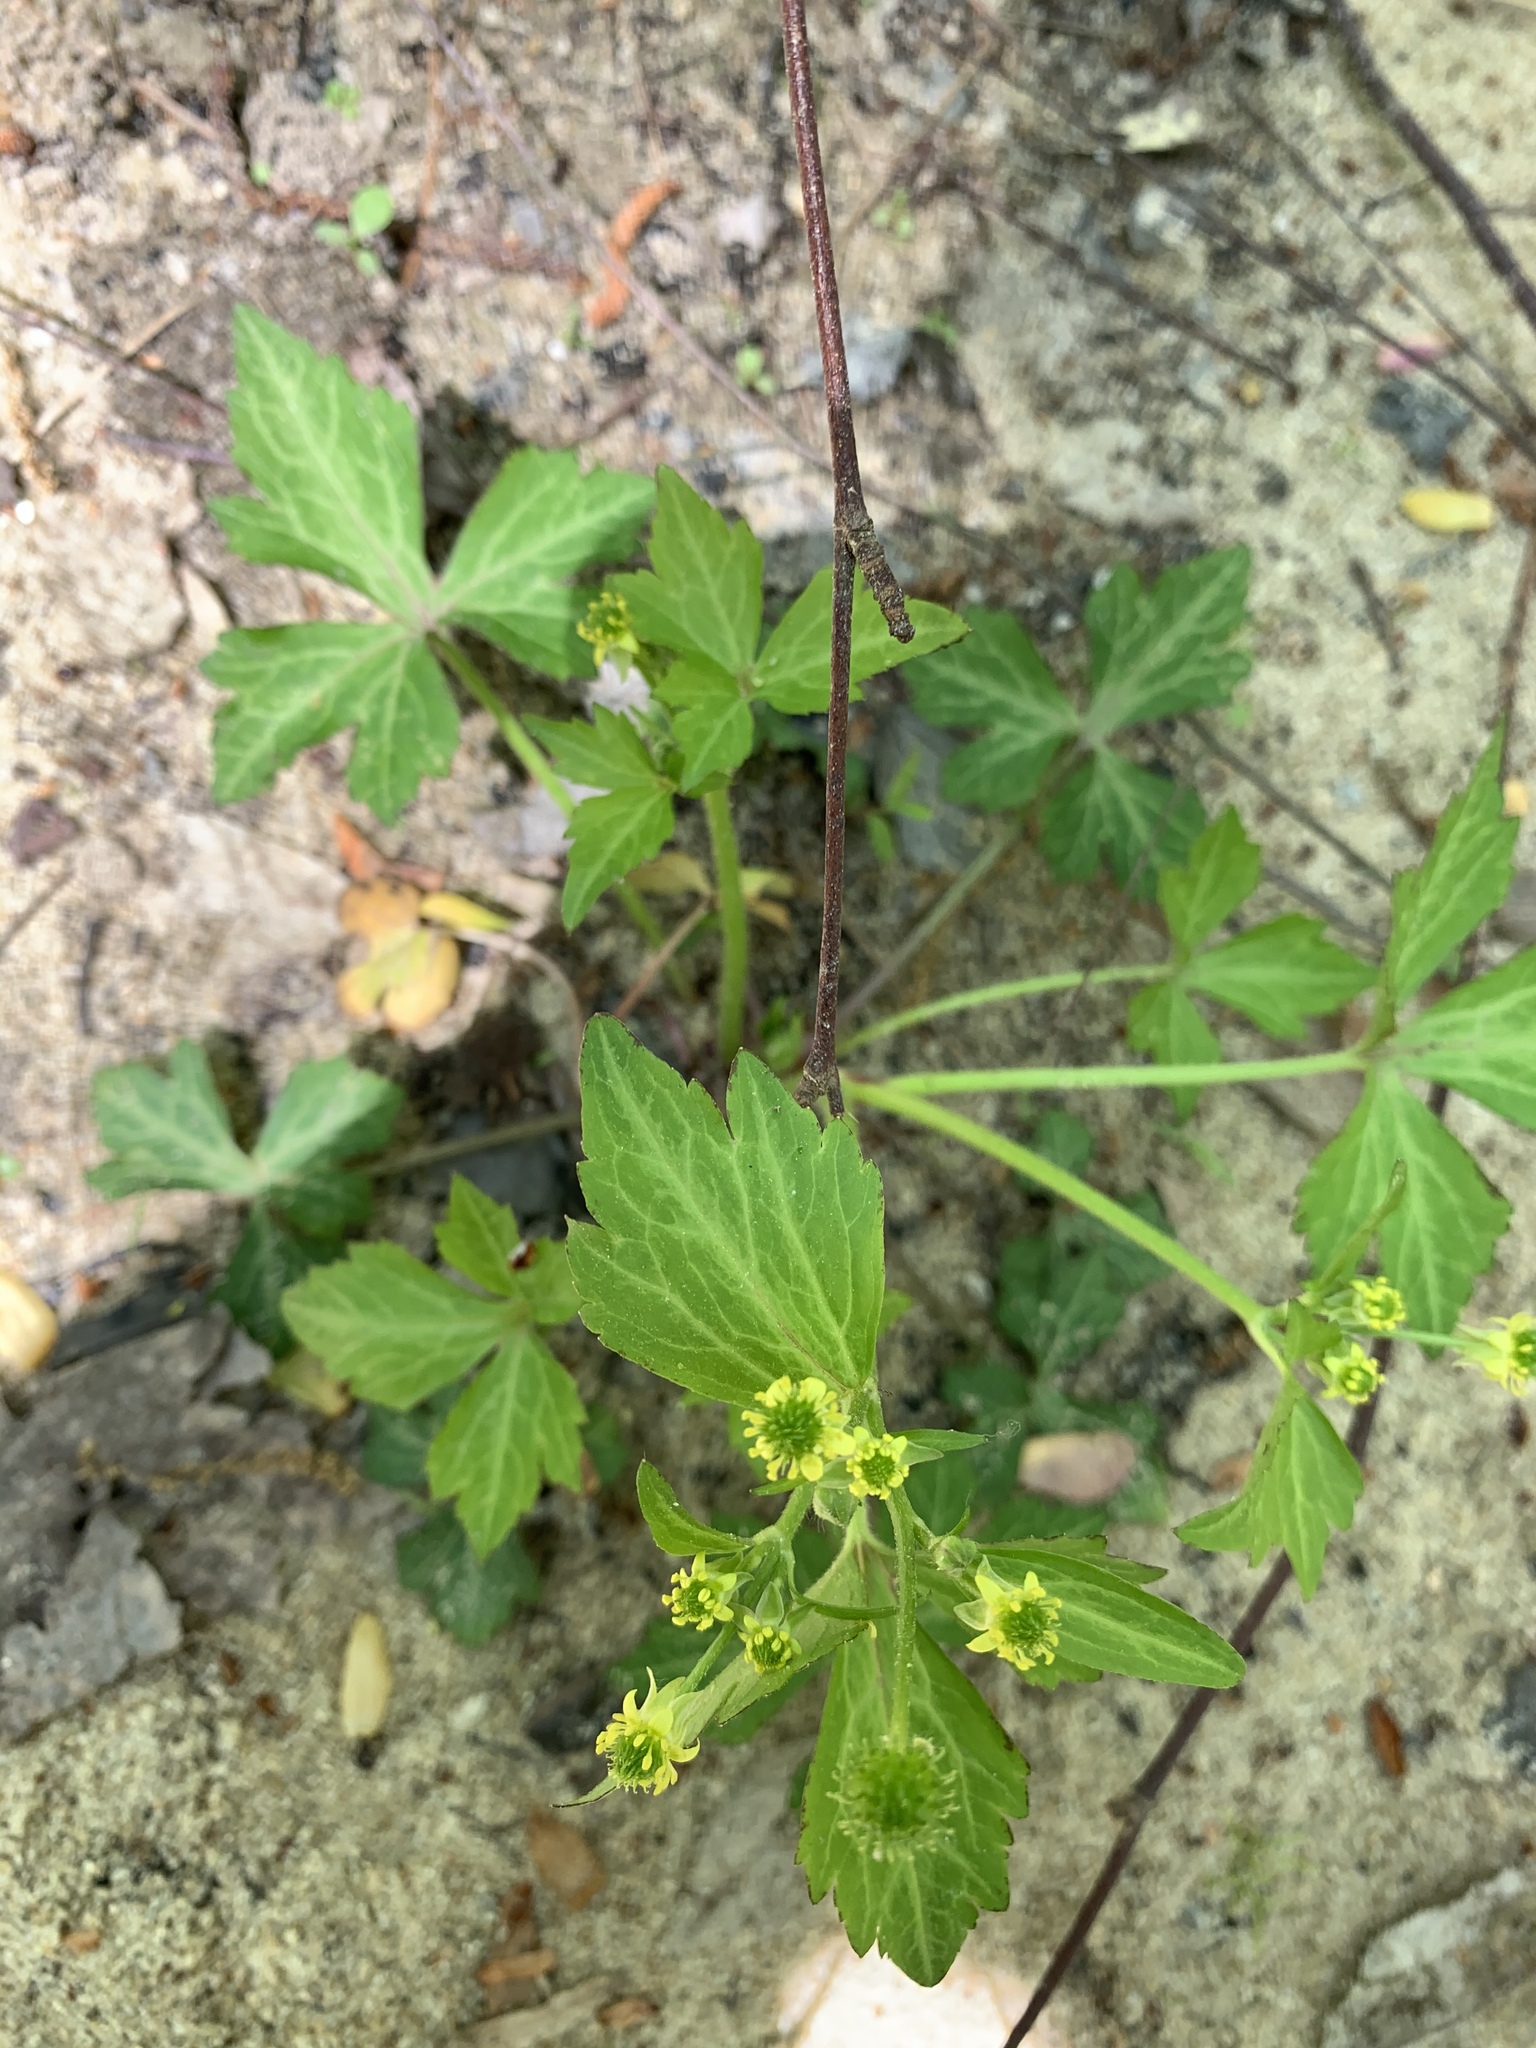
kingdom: Plantae
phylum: Tracheophyta
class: Magnoliopsida
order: Ranunculales
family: Ranunculaceae
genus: Ranunculus
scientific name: Ranunculus recurvatus
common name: Blisterwort
